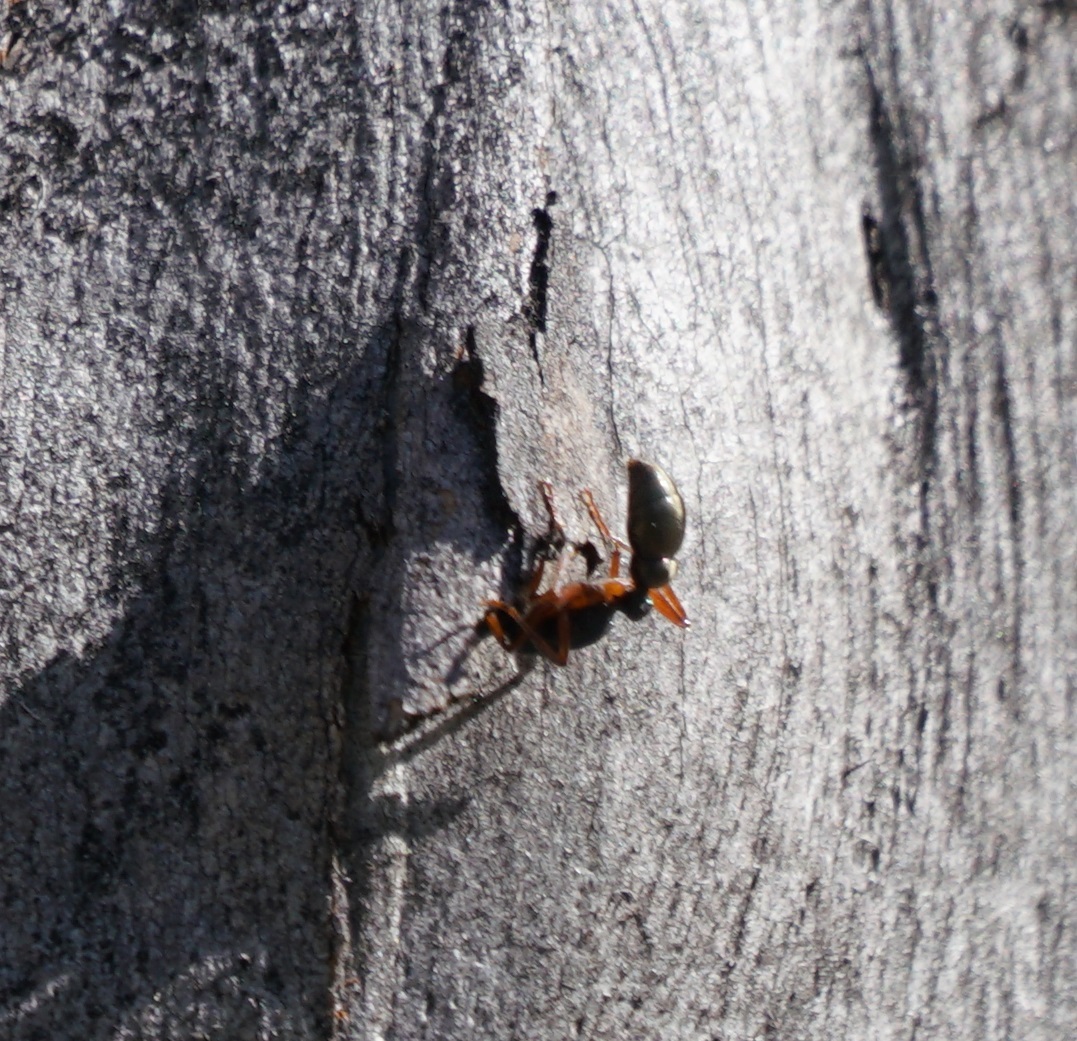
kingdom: Animalia
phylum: Arthropoda
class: Insecta
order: Hymenoptera
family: Formicidae
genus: Myrmecia
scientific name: Myrmecia fulvipes
